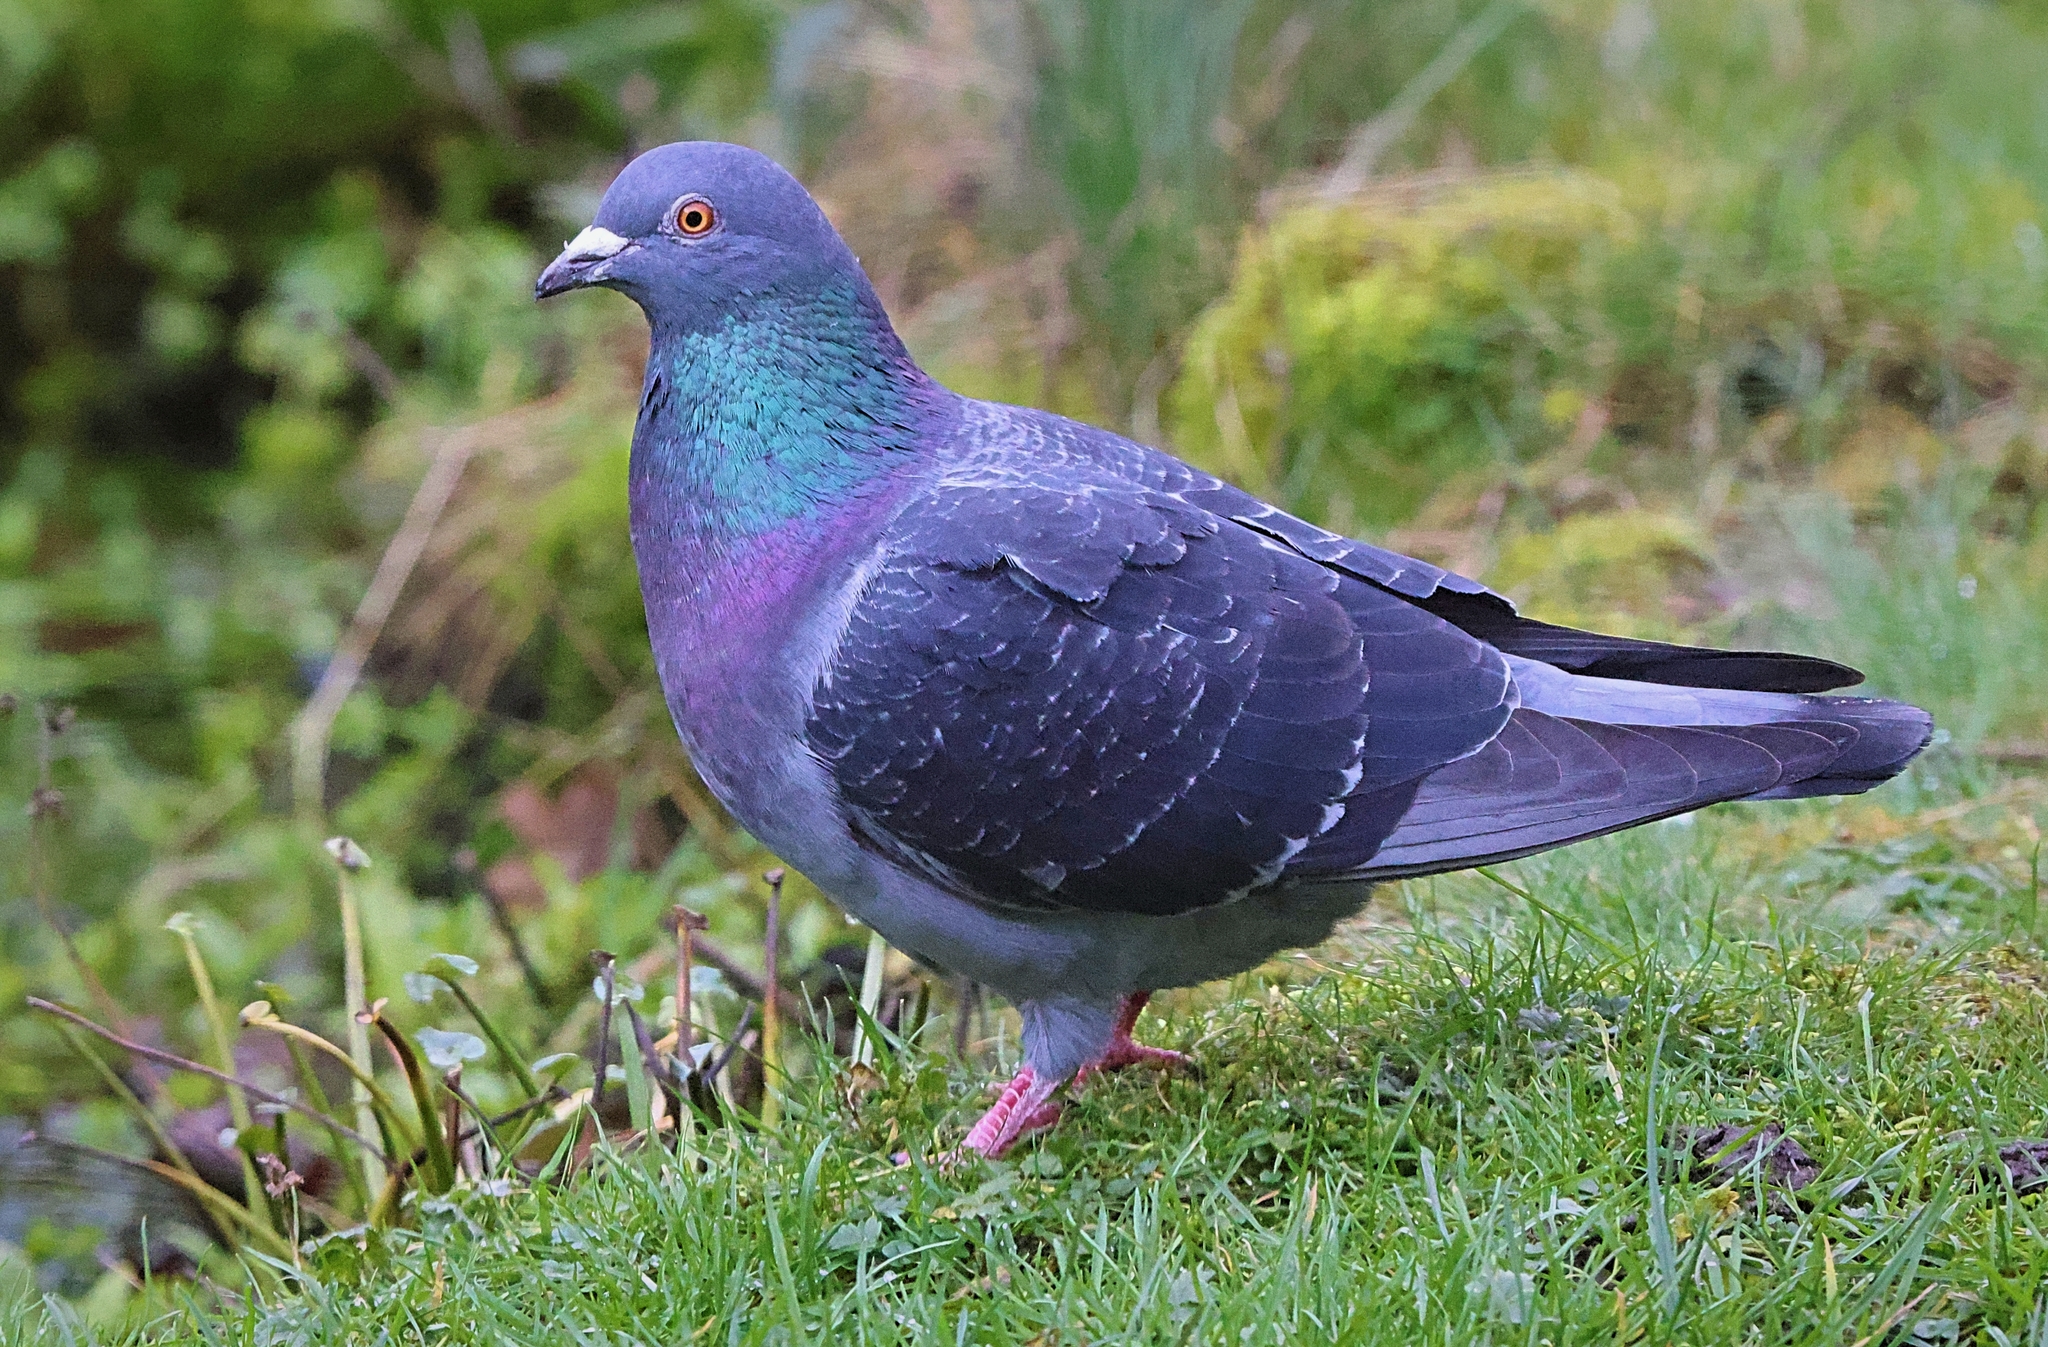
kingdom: Animalia
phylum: Chordata
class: Aves
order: Columbiformes
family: Columbidae
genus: Columba
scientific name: Columba livia
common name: Rock pigeon
